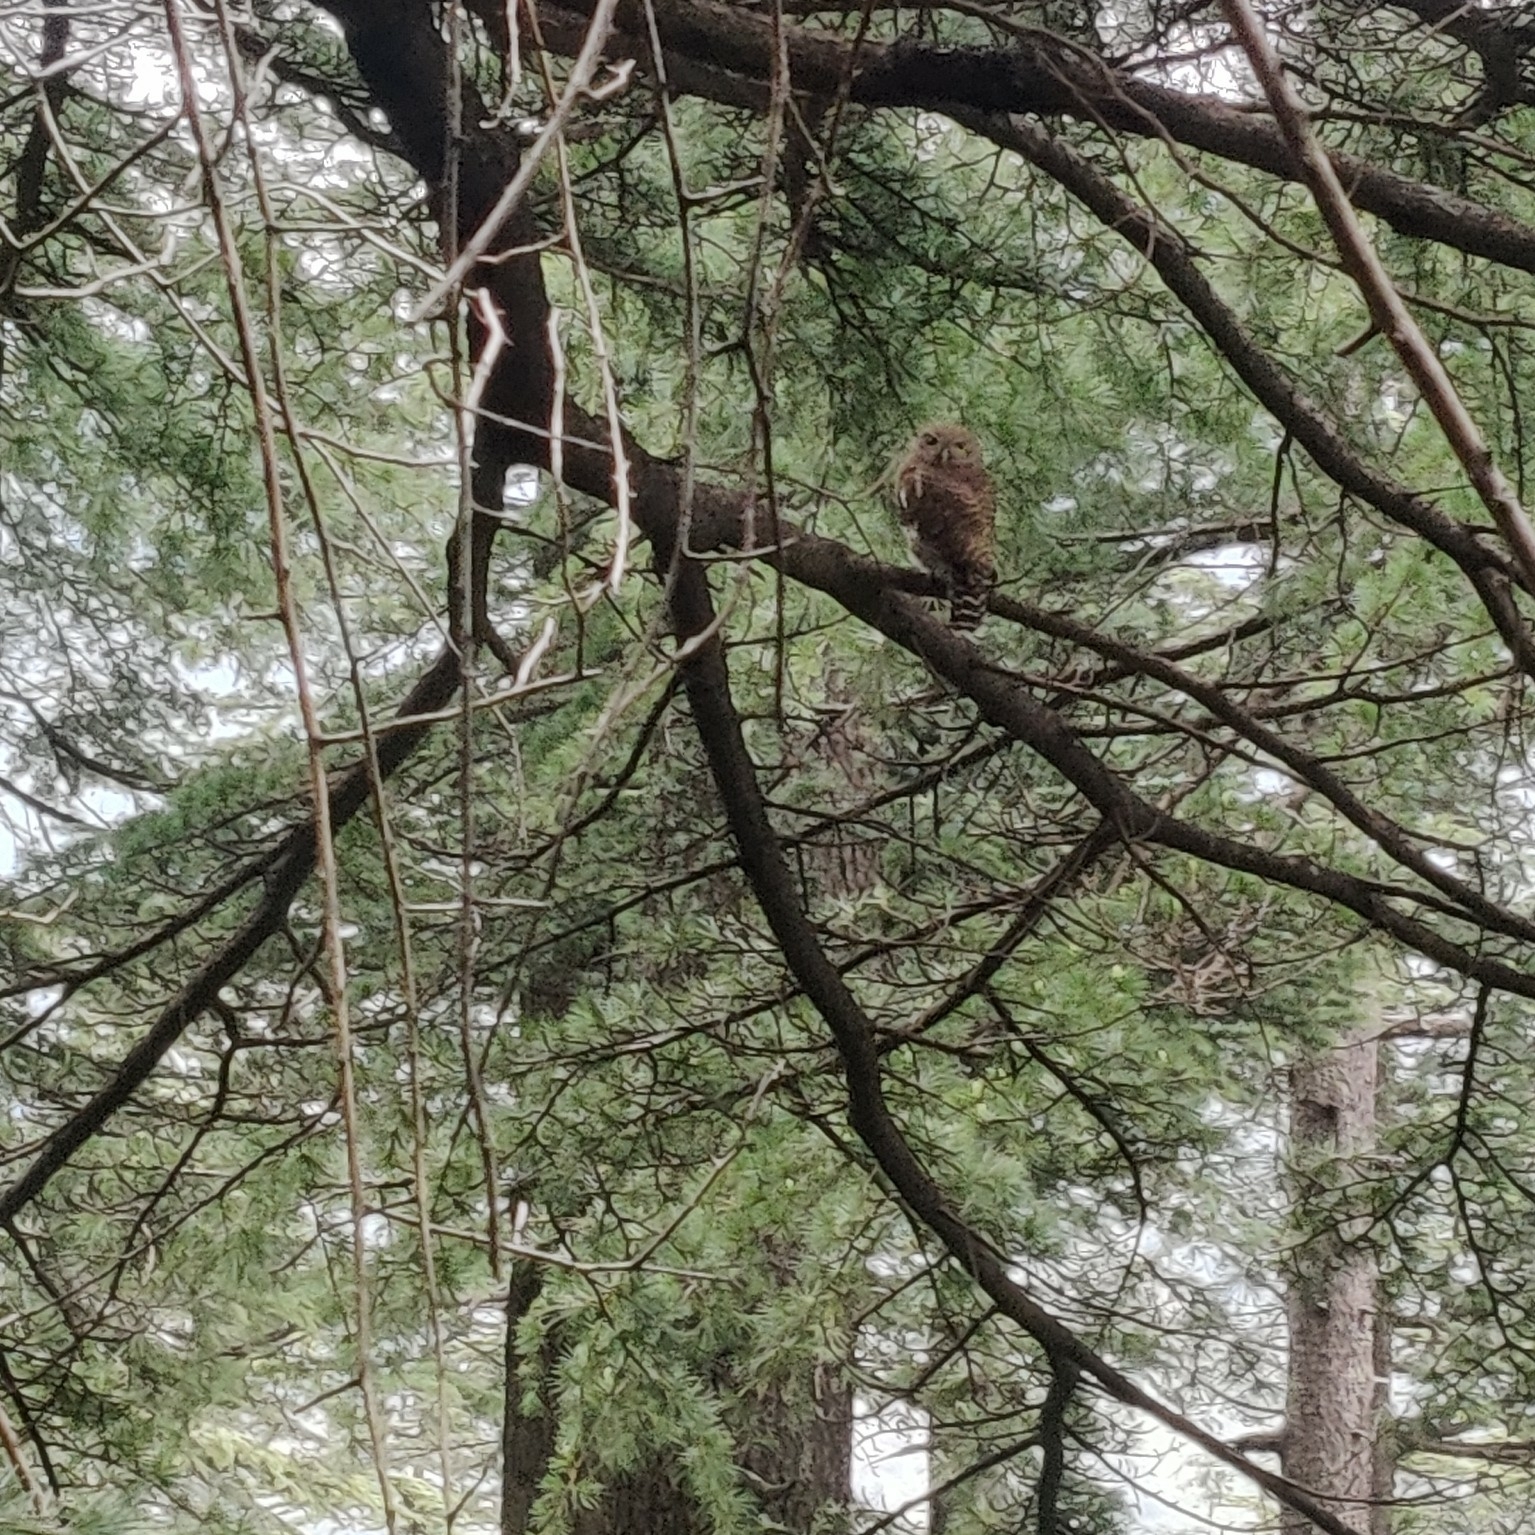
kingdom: Animalia
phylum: Chordata
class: Aves
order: Strigiformes
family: Strigidae
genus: Glaucidium
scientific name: Glaucidium cuculoides
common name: Asian barred owlet
